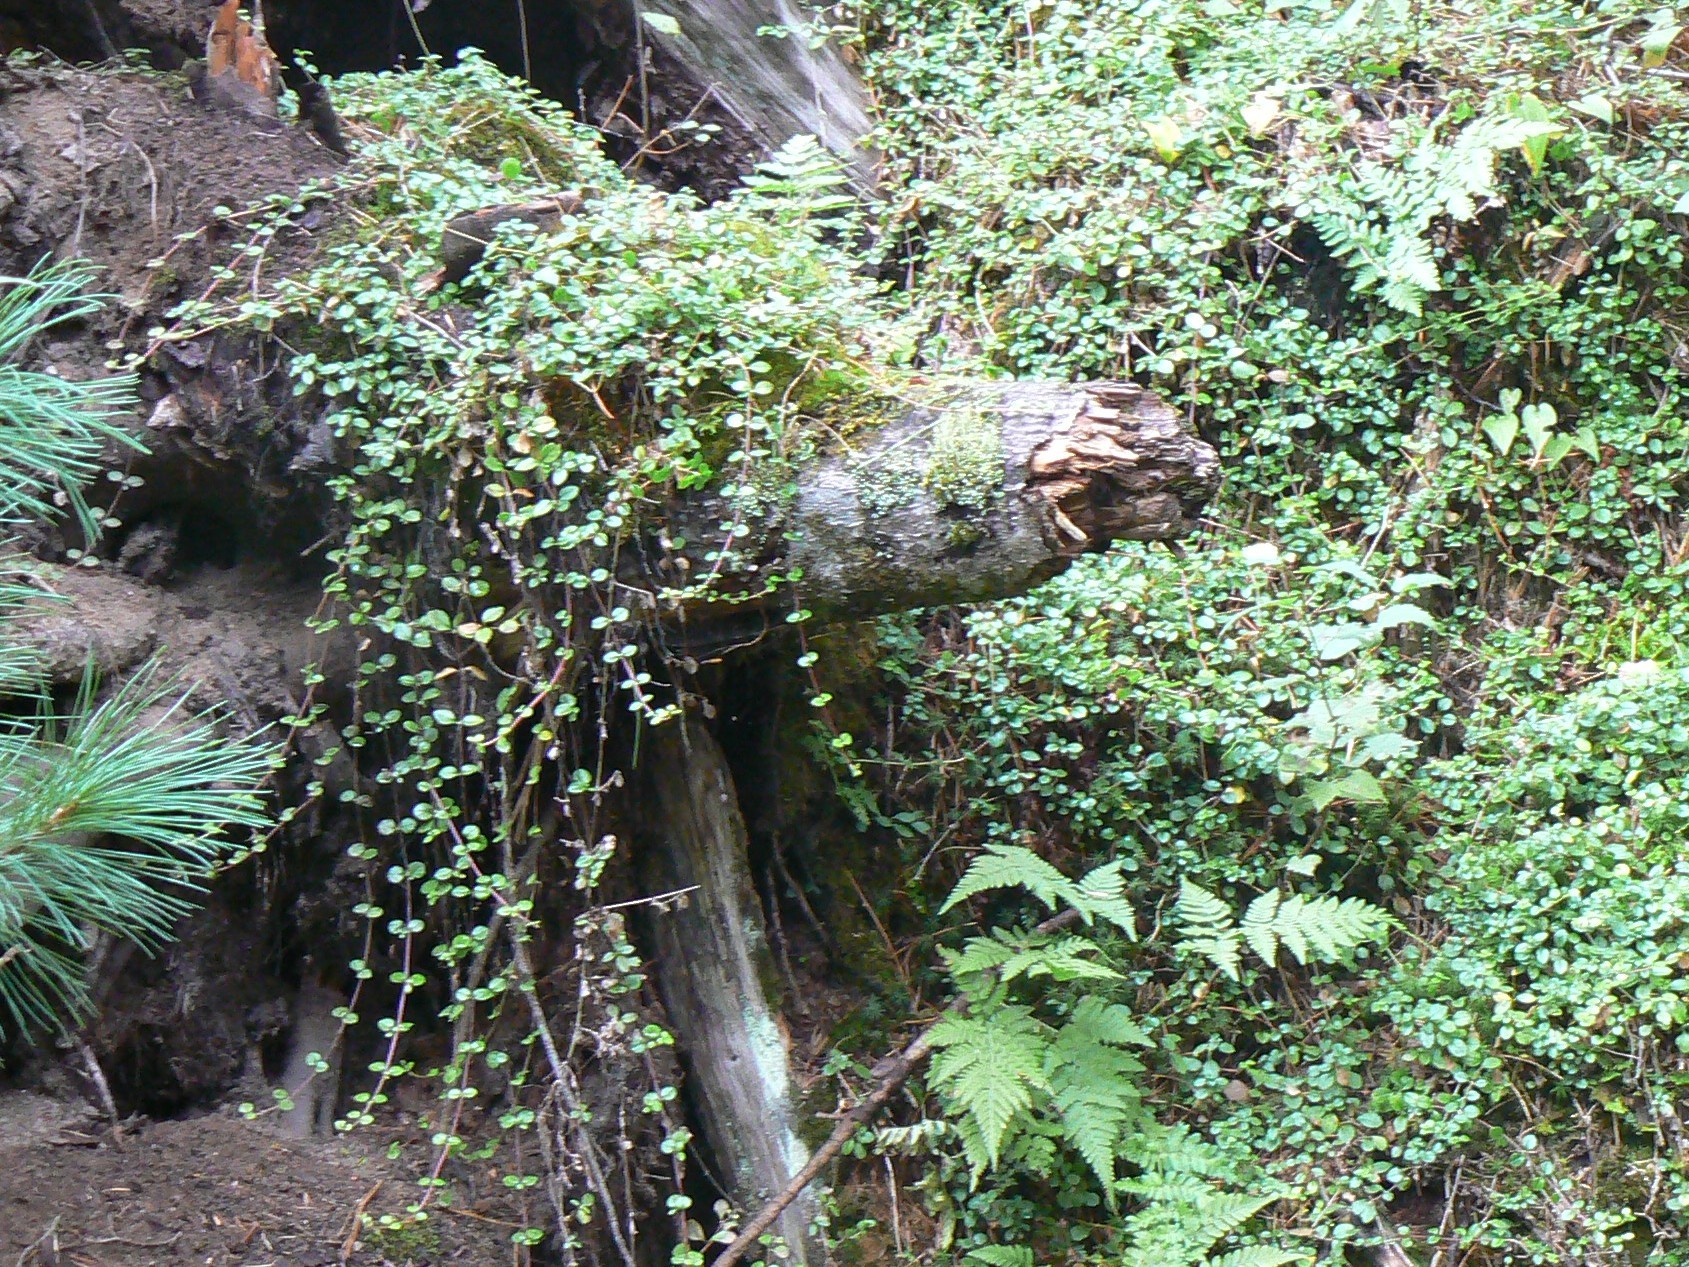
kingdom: Plantae
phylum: Tracheophyta
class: Magnoliopsida
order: Dipsacales
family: Caprifoliaceae
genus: Linnaea
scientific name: Linnaea borealis
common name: Twinflower
